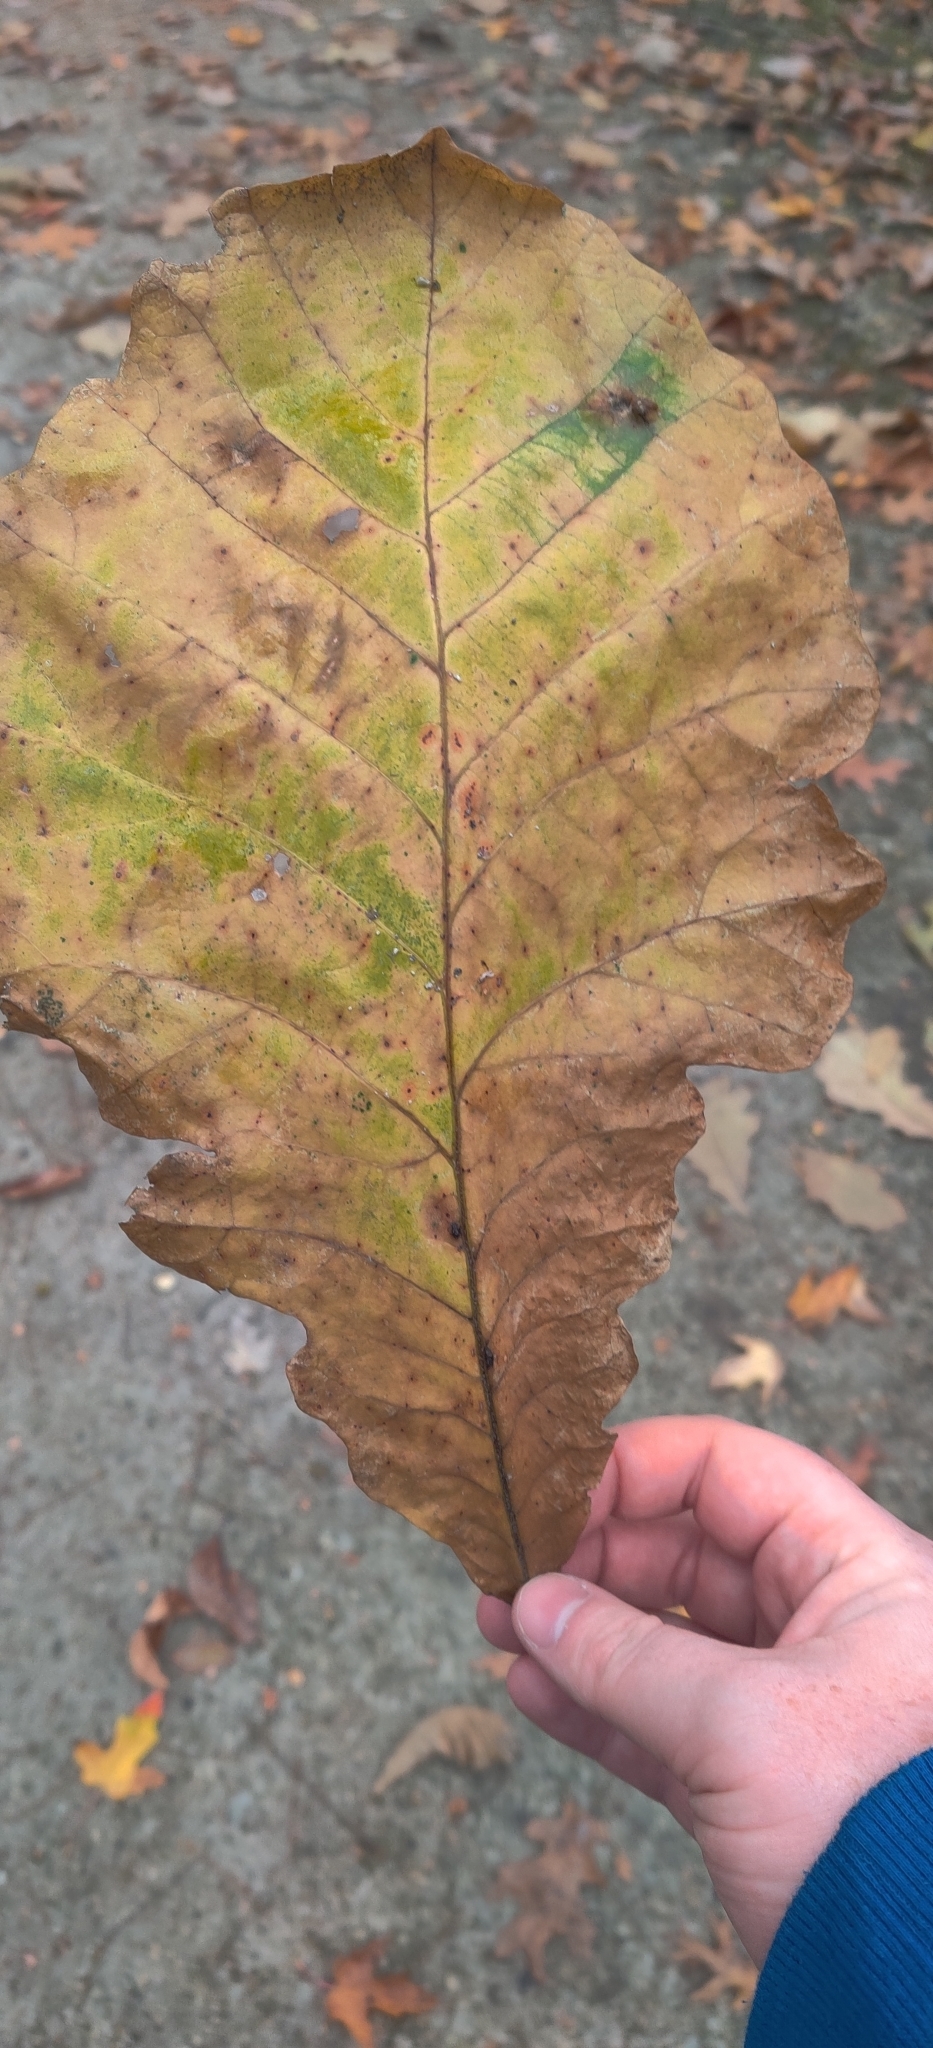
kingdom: Plantae
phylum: Tracheophyta
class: Magnoliopsida
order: Fagales
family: Fagaceae
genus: Quercus
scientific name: Quercus bicolor
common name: Swamp white oak
